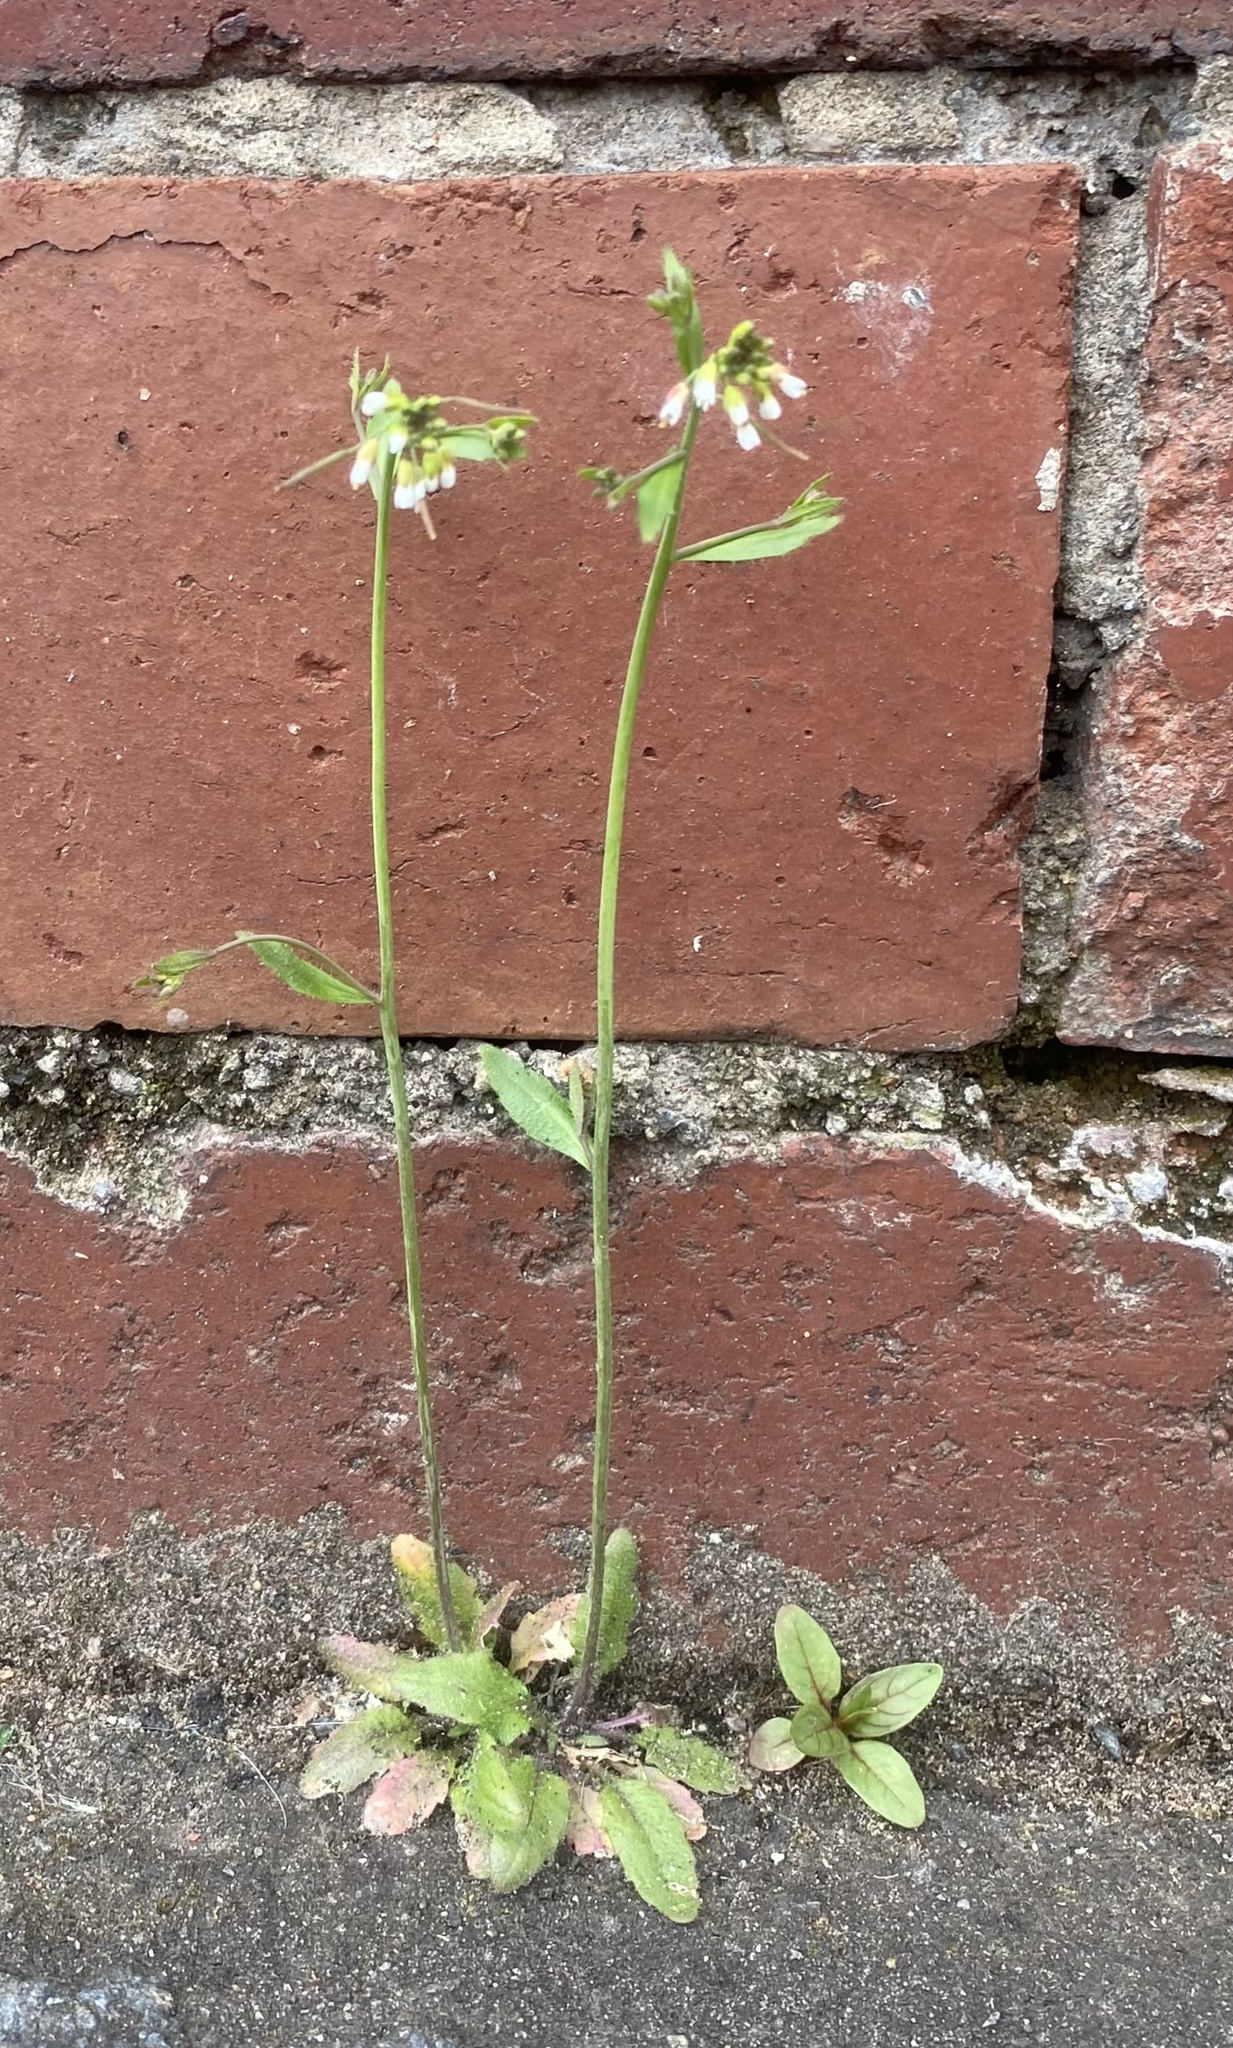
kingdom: Plantae
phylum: Tracheophyta
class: Magnoliopsida
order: Brassicales
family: Brassicaceae
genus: Arabidopsis
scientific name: Arabidopsis thaliana
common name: Thale cress
